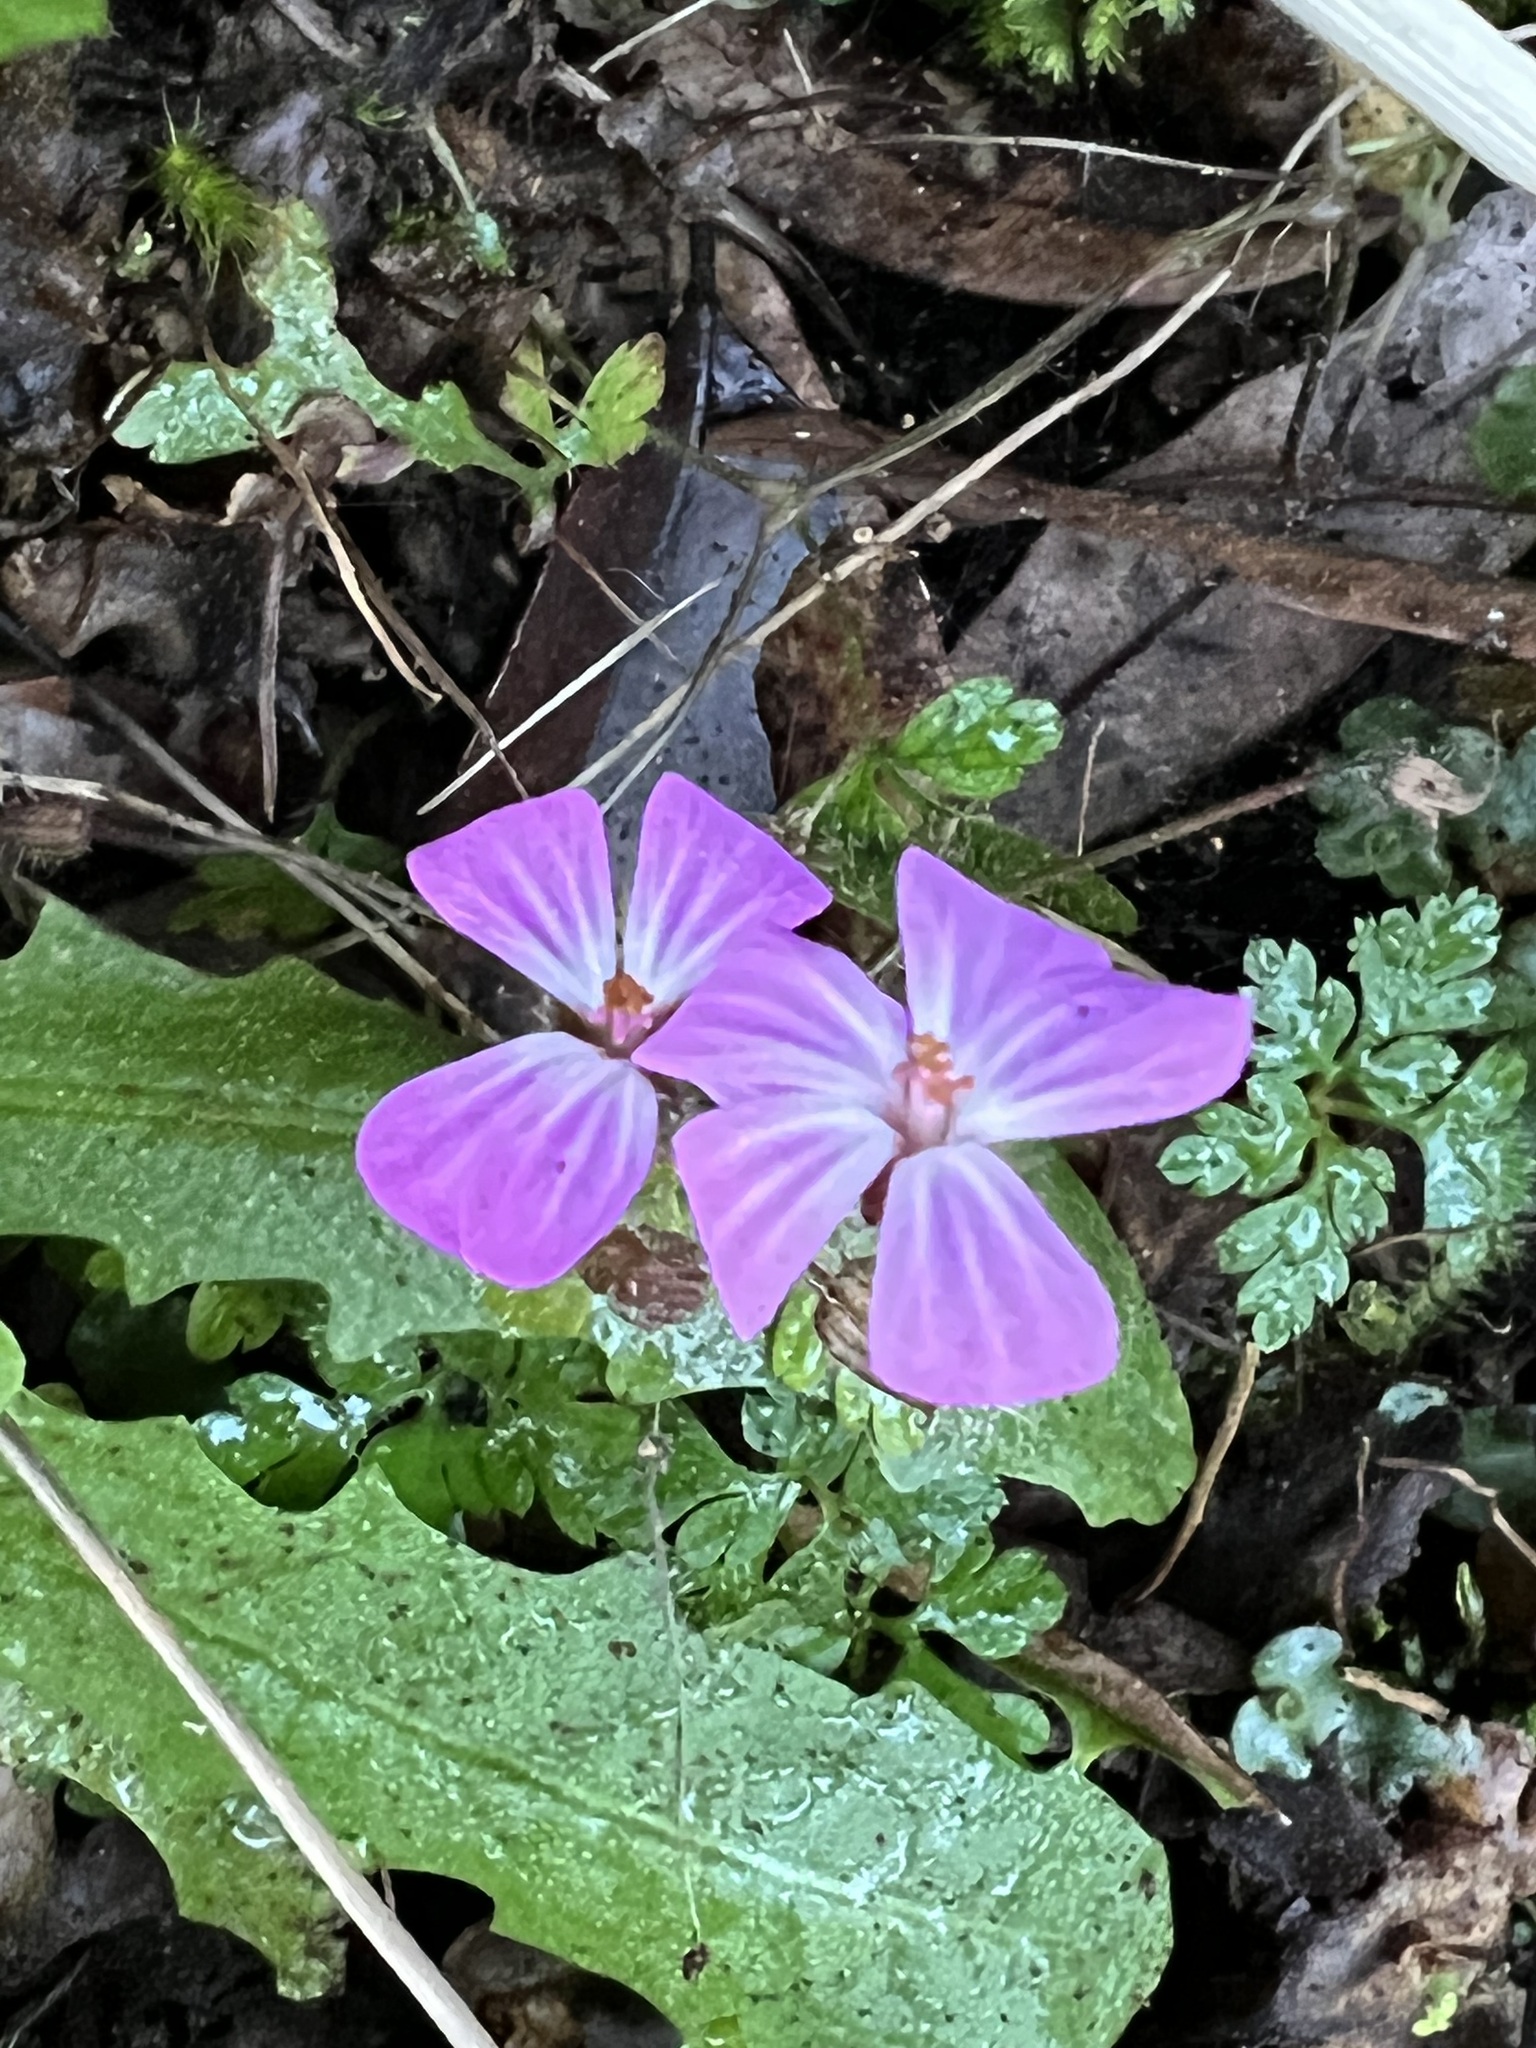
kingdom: Plantae
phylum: Tracheophyta
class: Magnoliopsida
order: Geraniales
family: Geraniaceae
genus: Geranium
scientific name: Geranium robertianum
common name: Herb-robert
